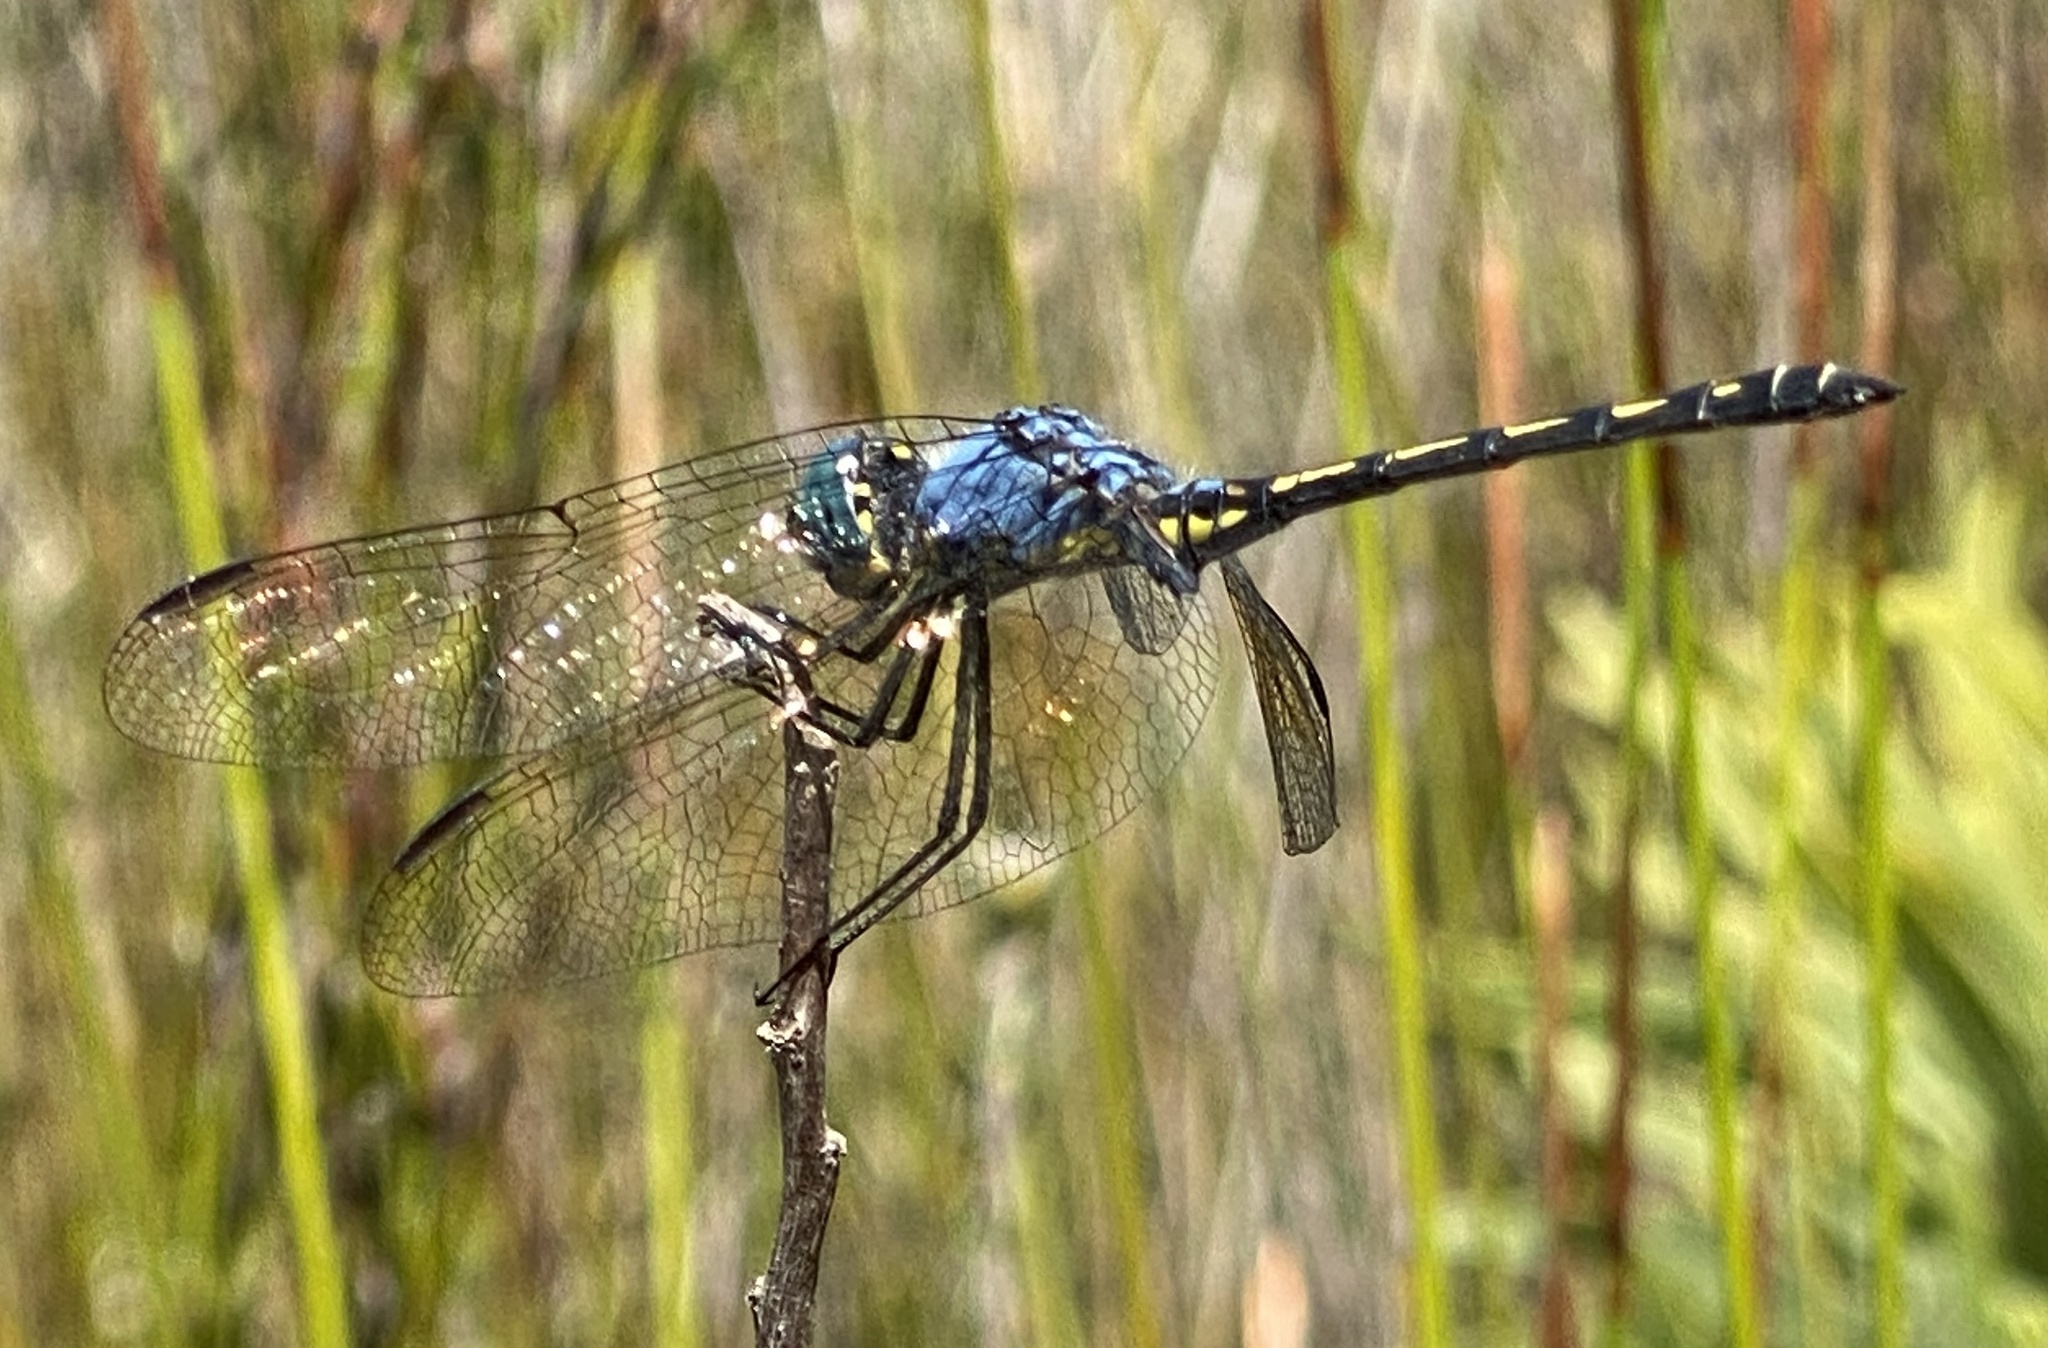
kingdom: Animalia
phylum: Arthropoda
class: Insecta
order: Odonata
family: Libellulidae
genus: Trithemis
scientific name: Trithemis stictica
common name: Jaunty dropwing
